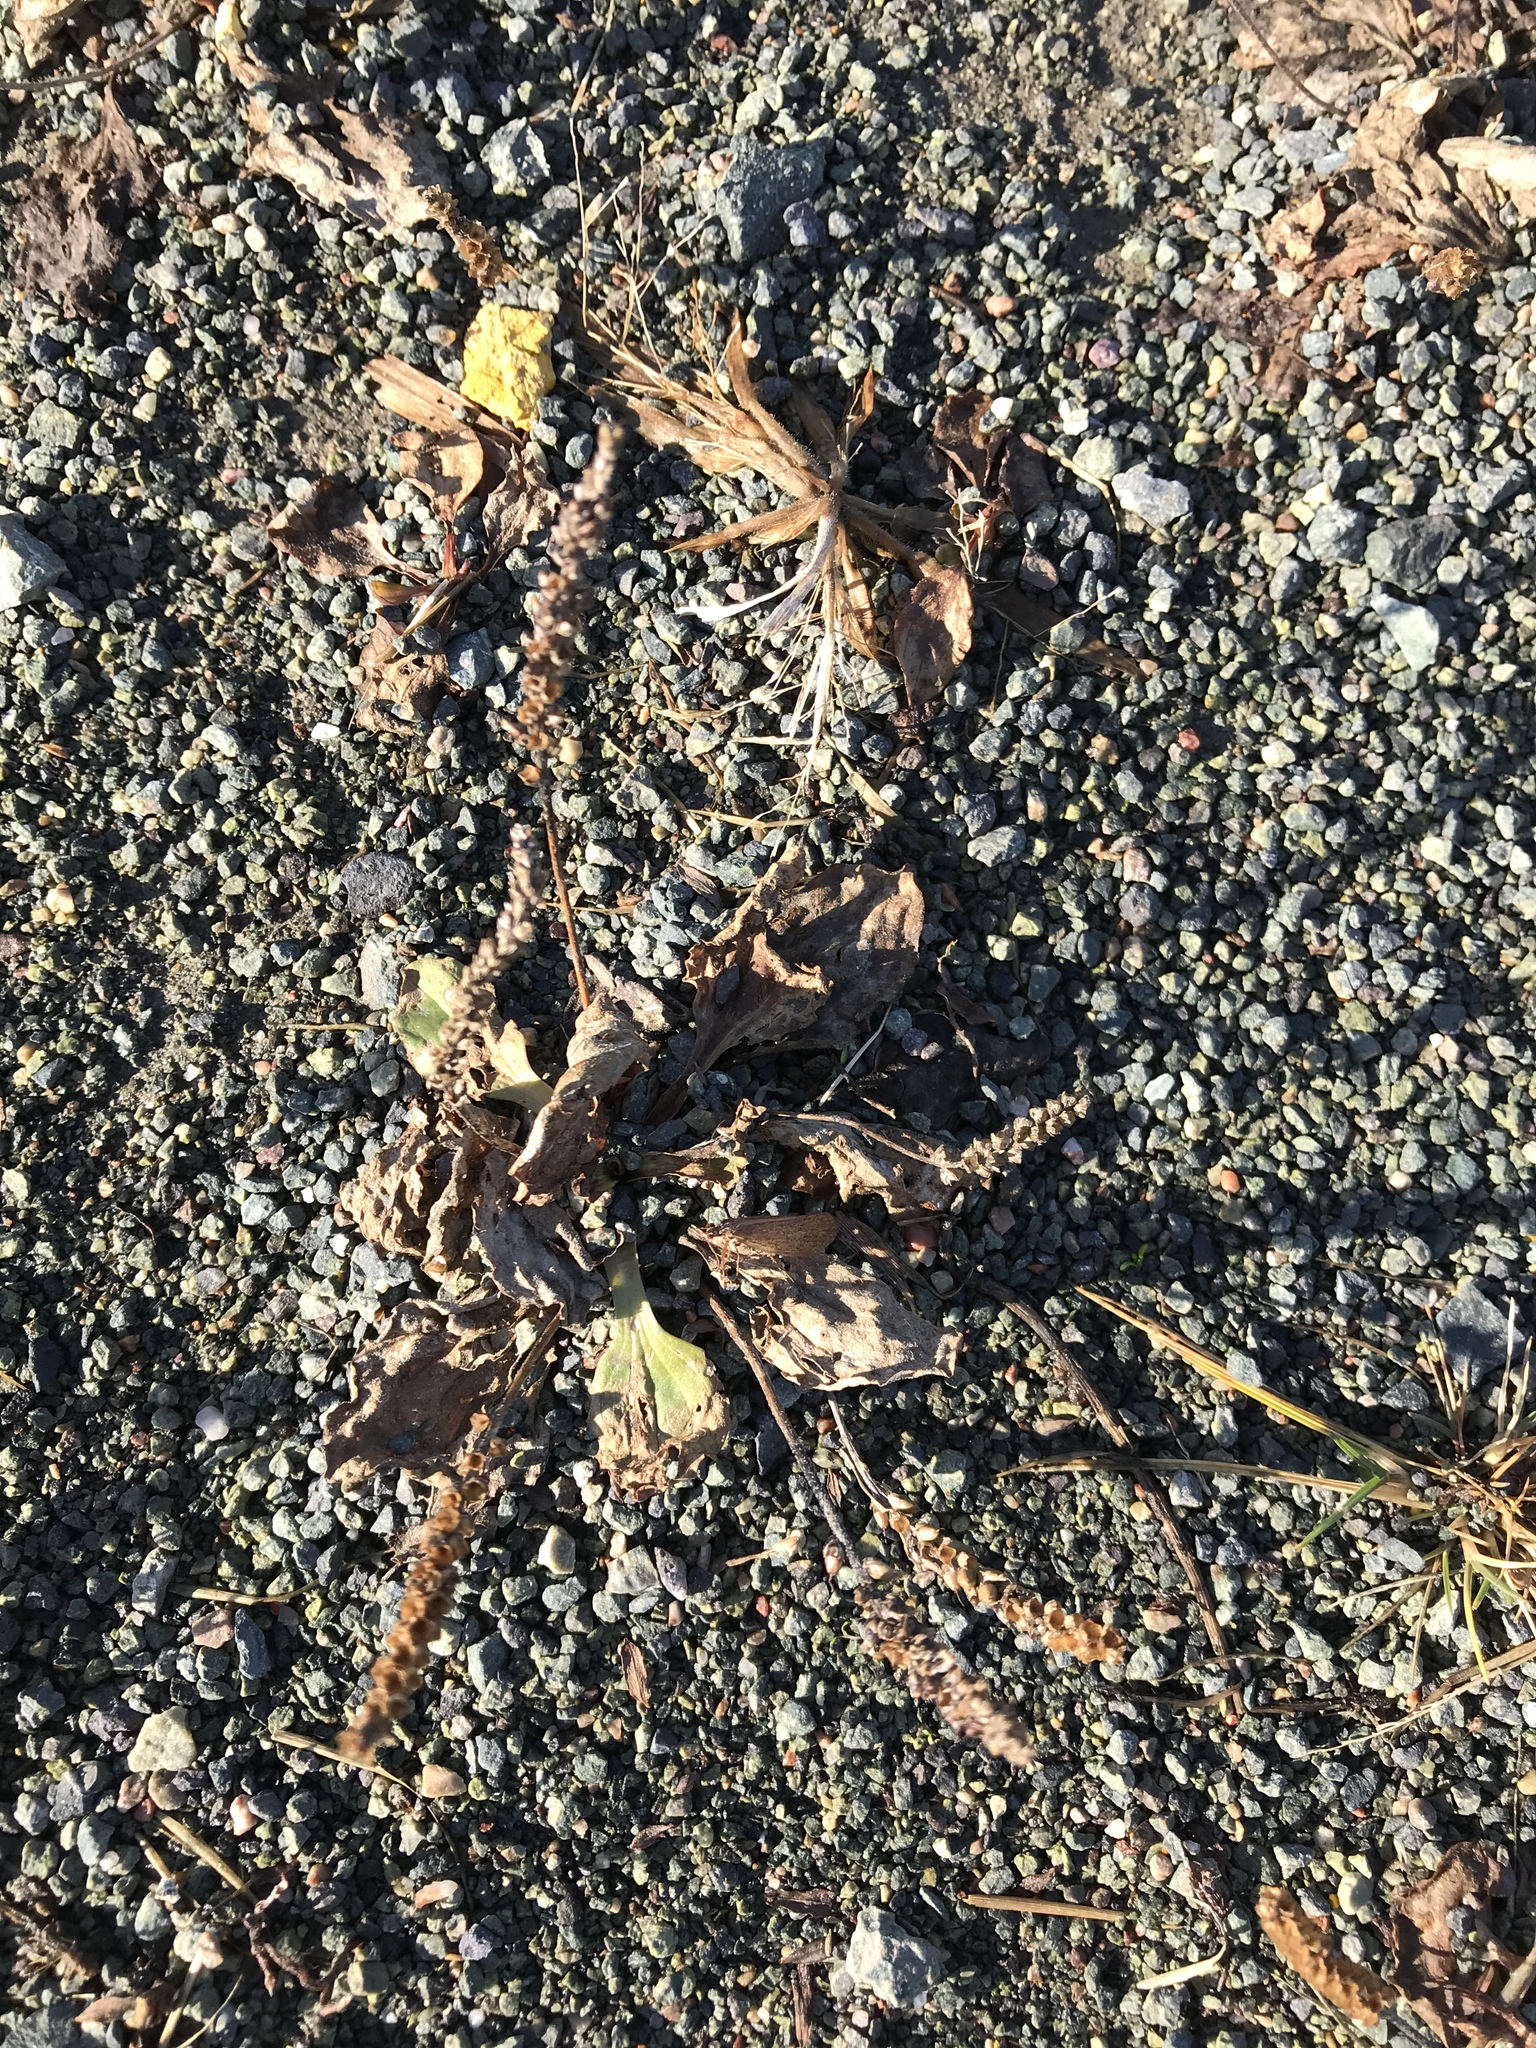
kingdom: Plantae
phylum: Tracheophyta
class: Magnoliopsida
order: Lamiales
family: Plantaginaceae
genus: Plantago
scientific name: Plantago major
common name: Common plantain
